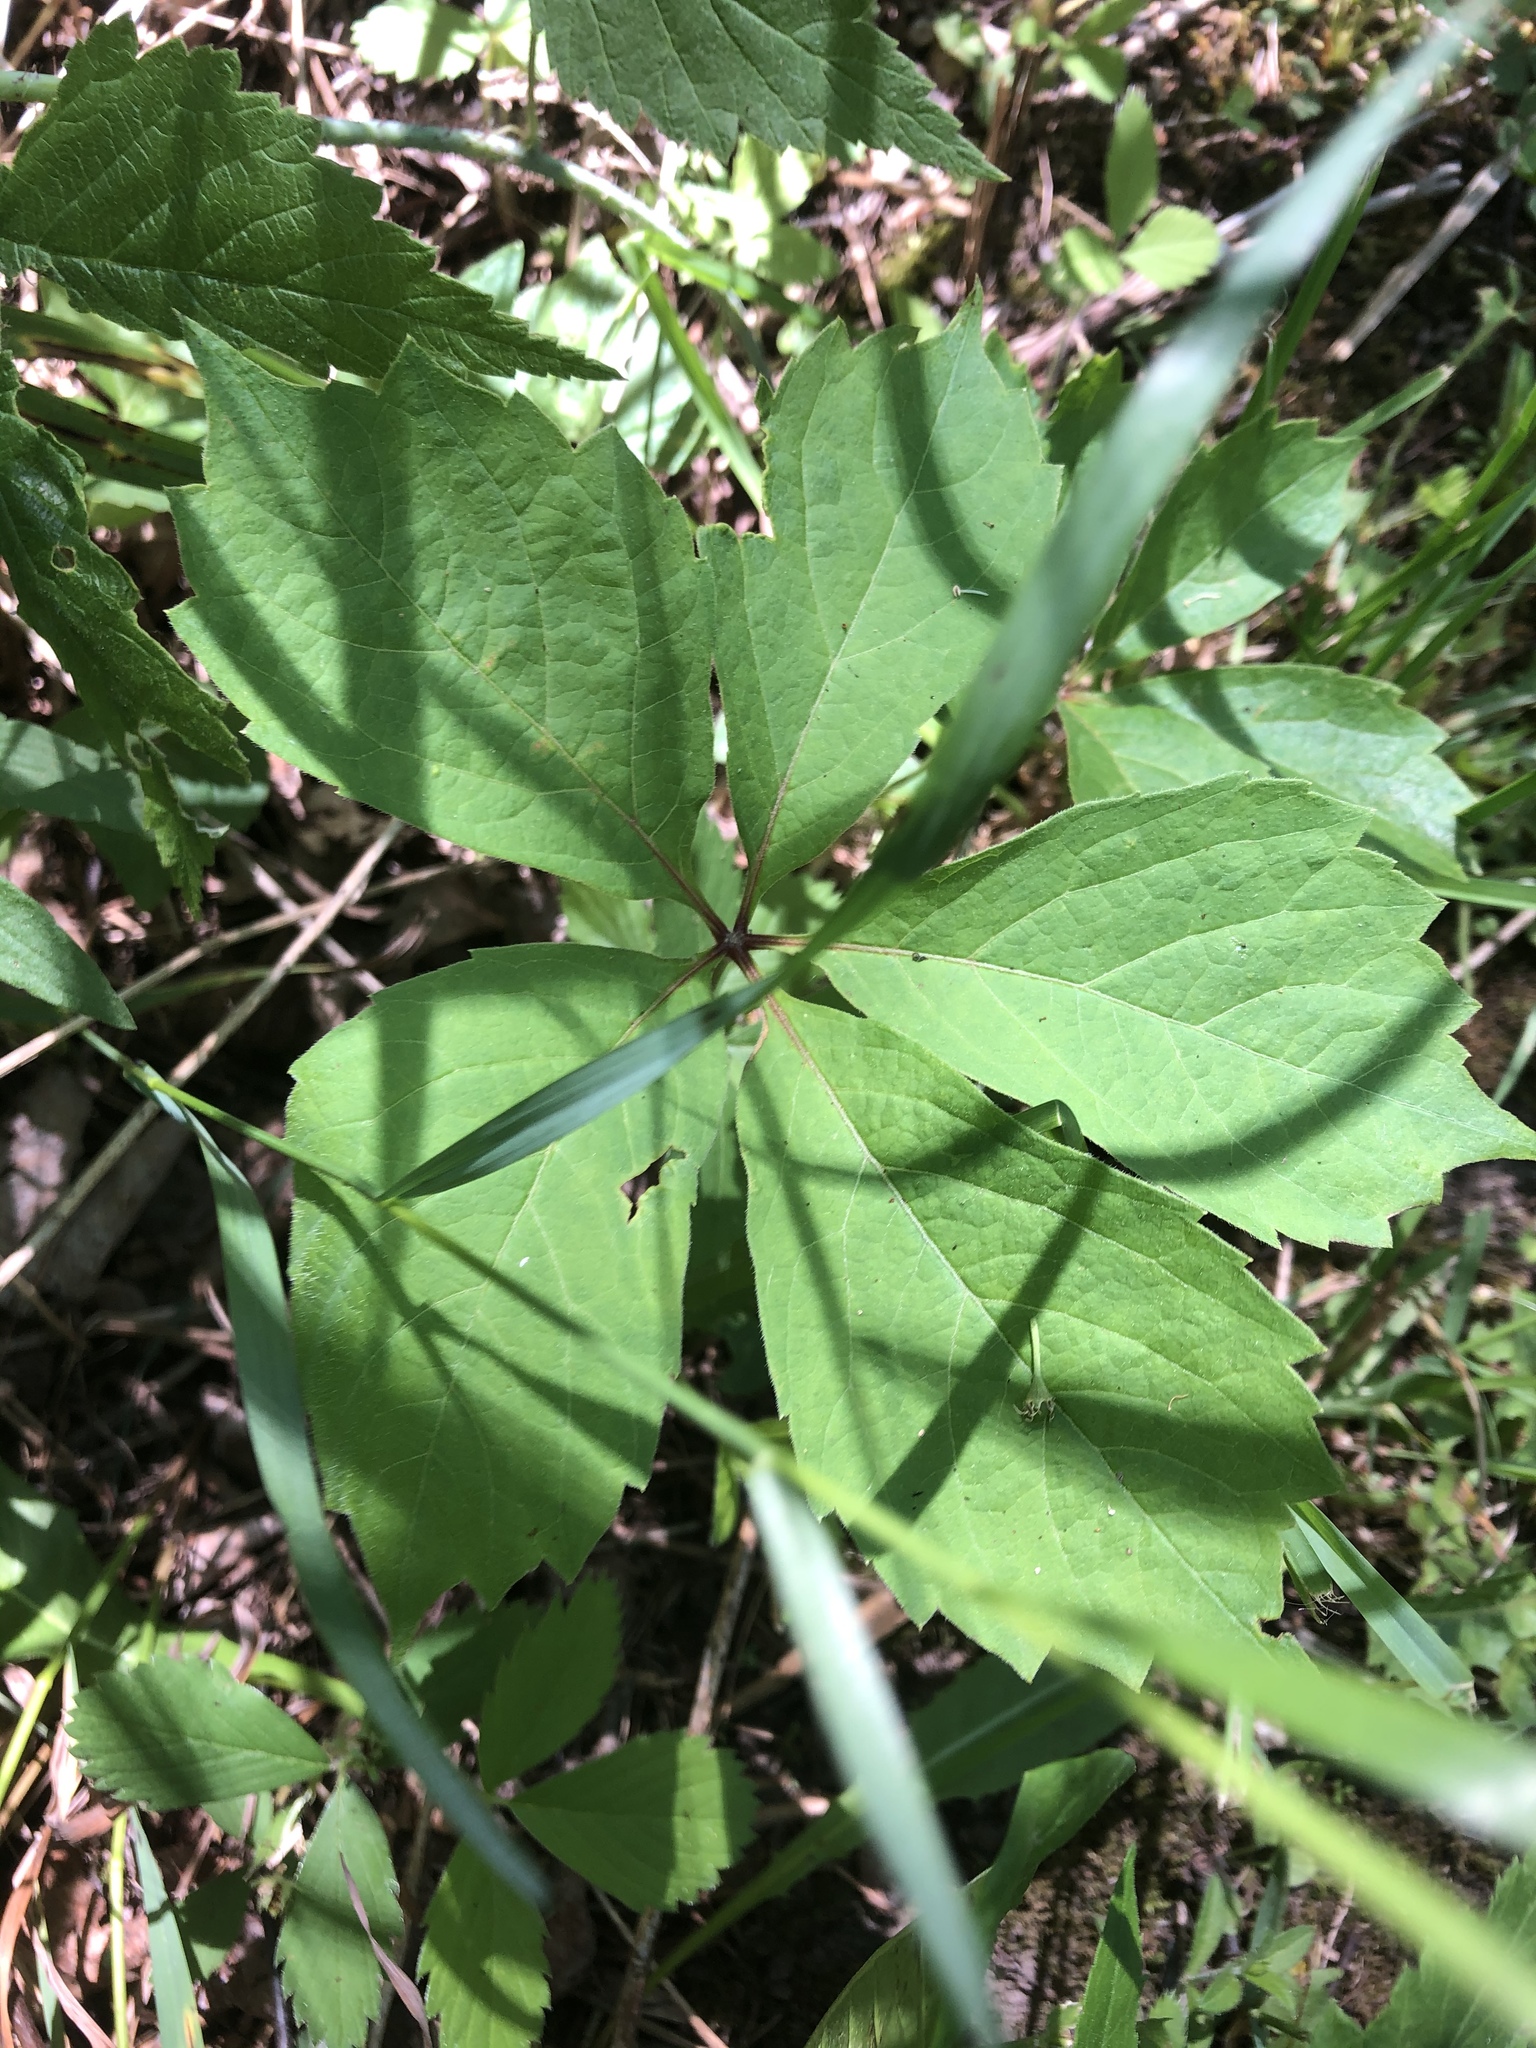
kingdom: Plantae
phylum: Tracheophyta
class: Magnoliopsida
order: Vitales
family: Vitaceae
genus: Parthenocissus
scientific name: Parthenocissus quinquefolia
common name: Virginia-creeper
